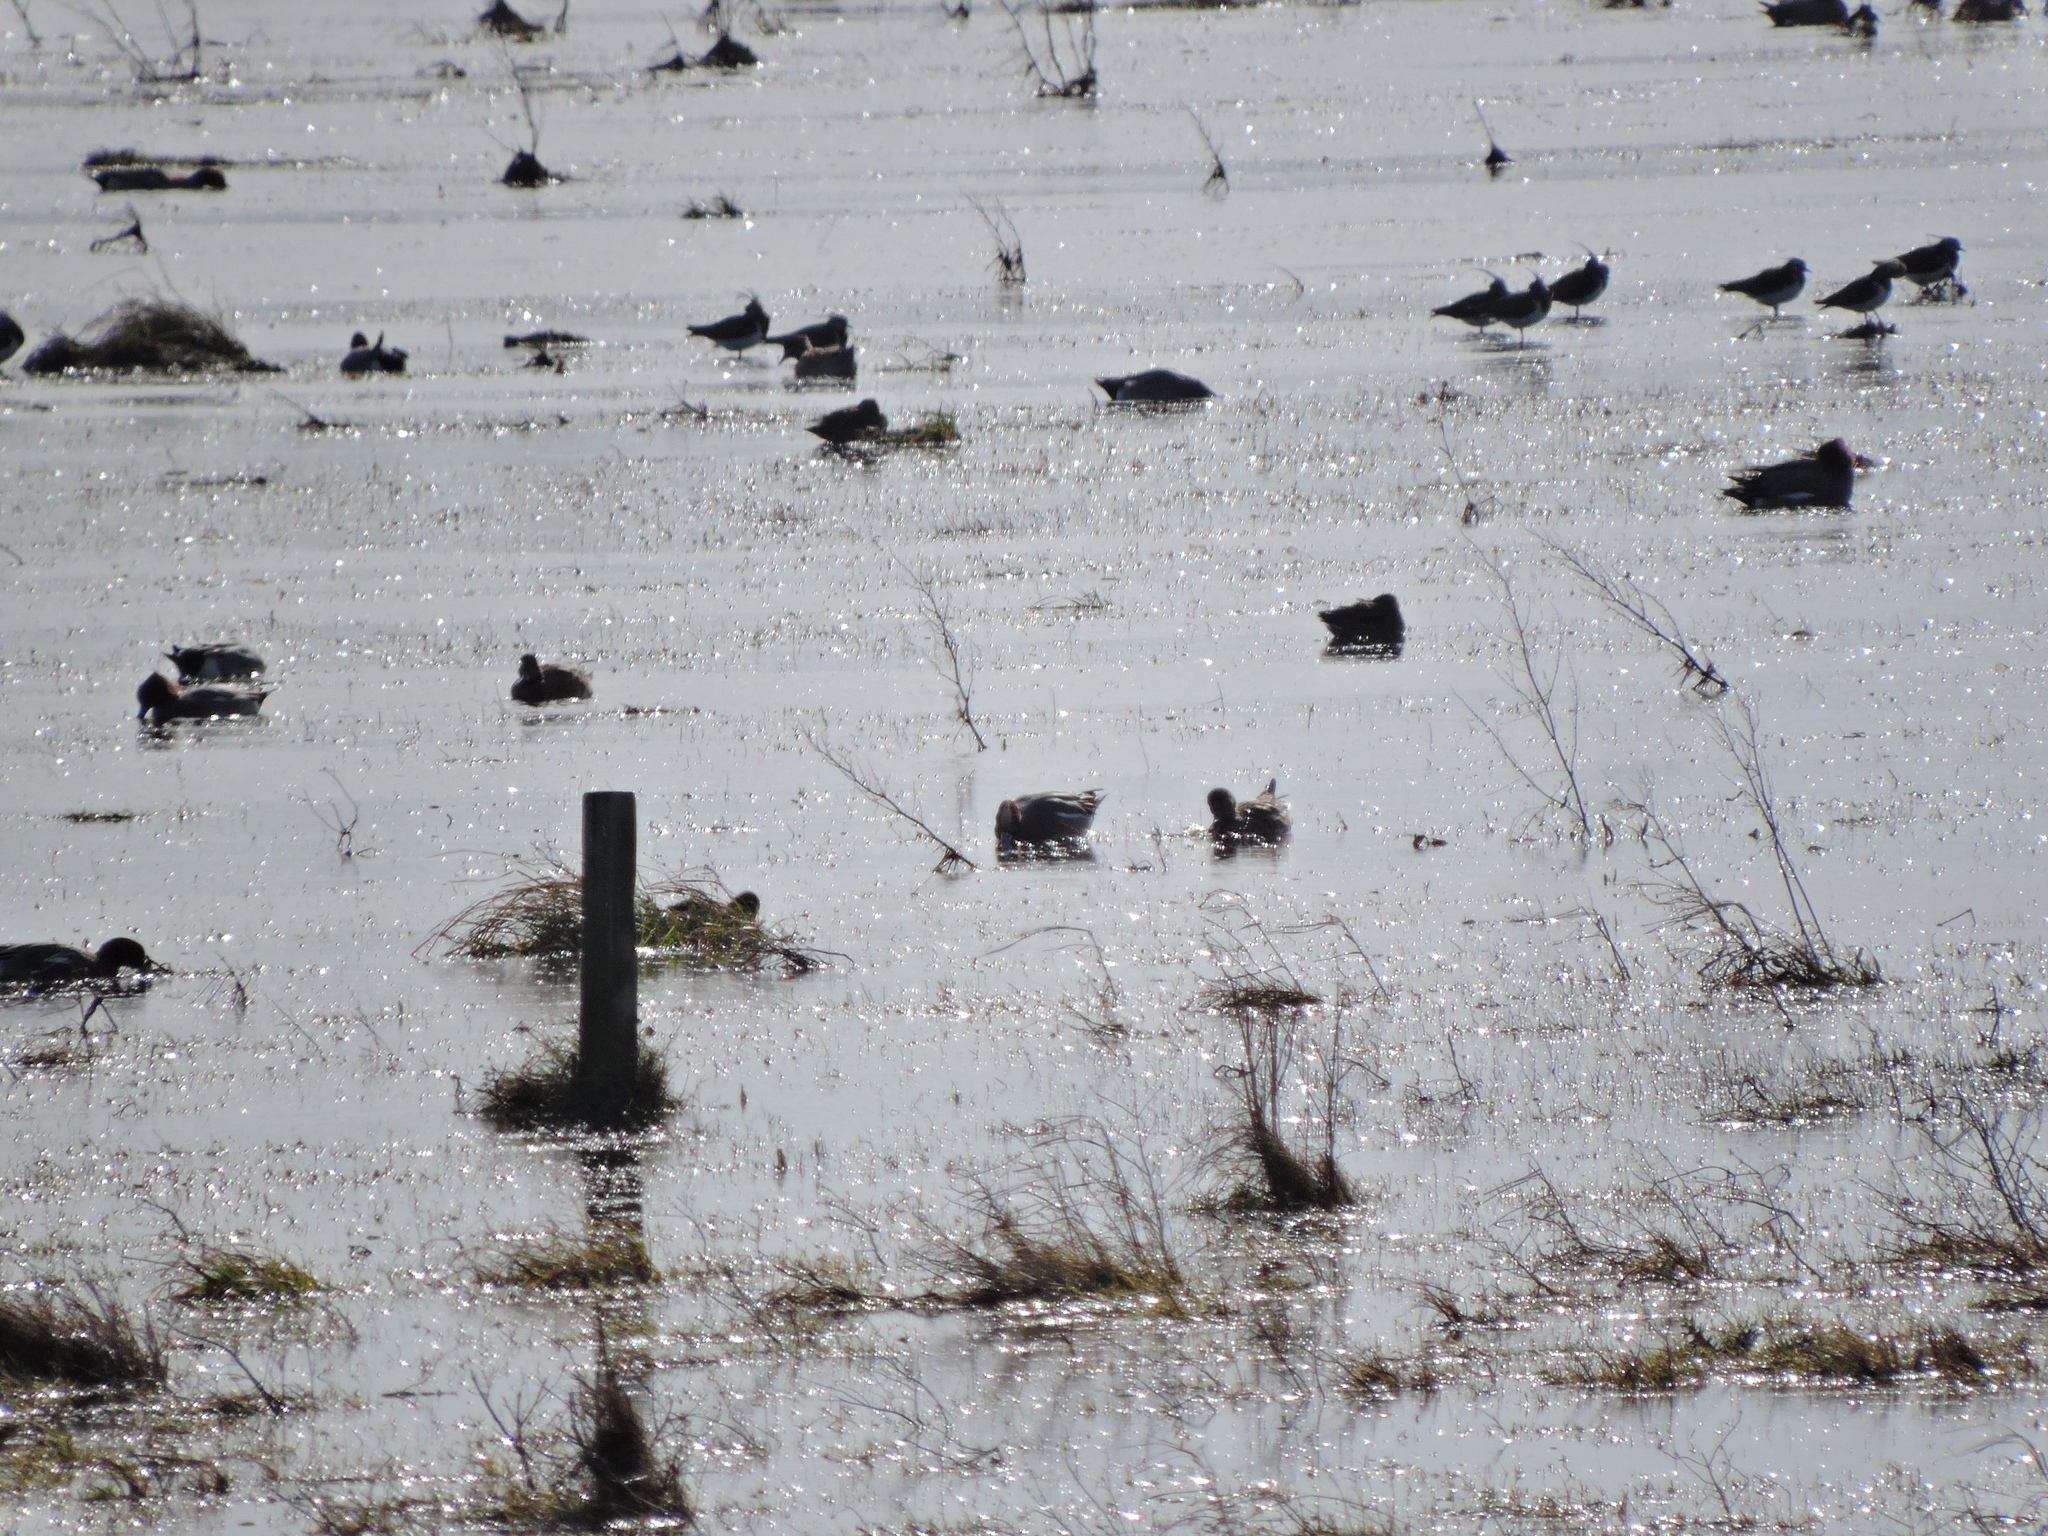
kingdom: Animalia
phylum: Chordata
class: Aves
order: Charadriiformes
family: Charadriidae
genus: Vanellus
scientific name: Vanellus vanellus
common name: Northern lapwing
